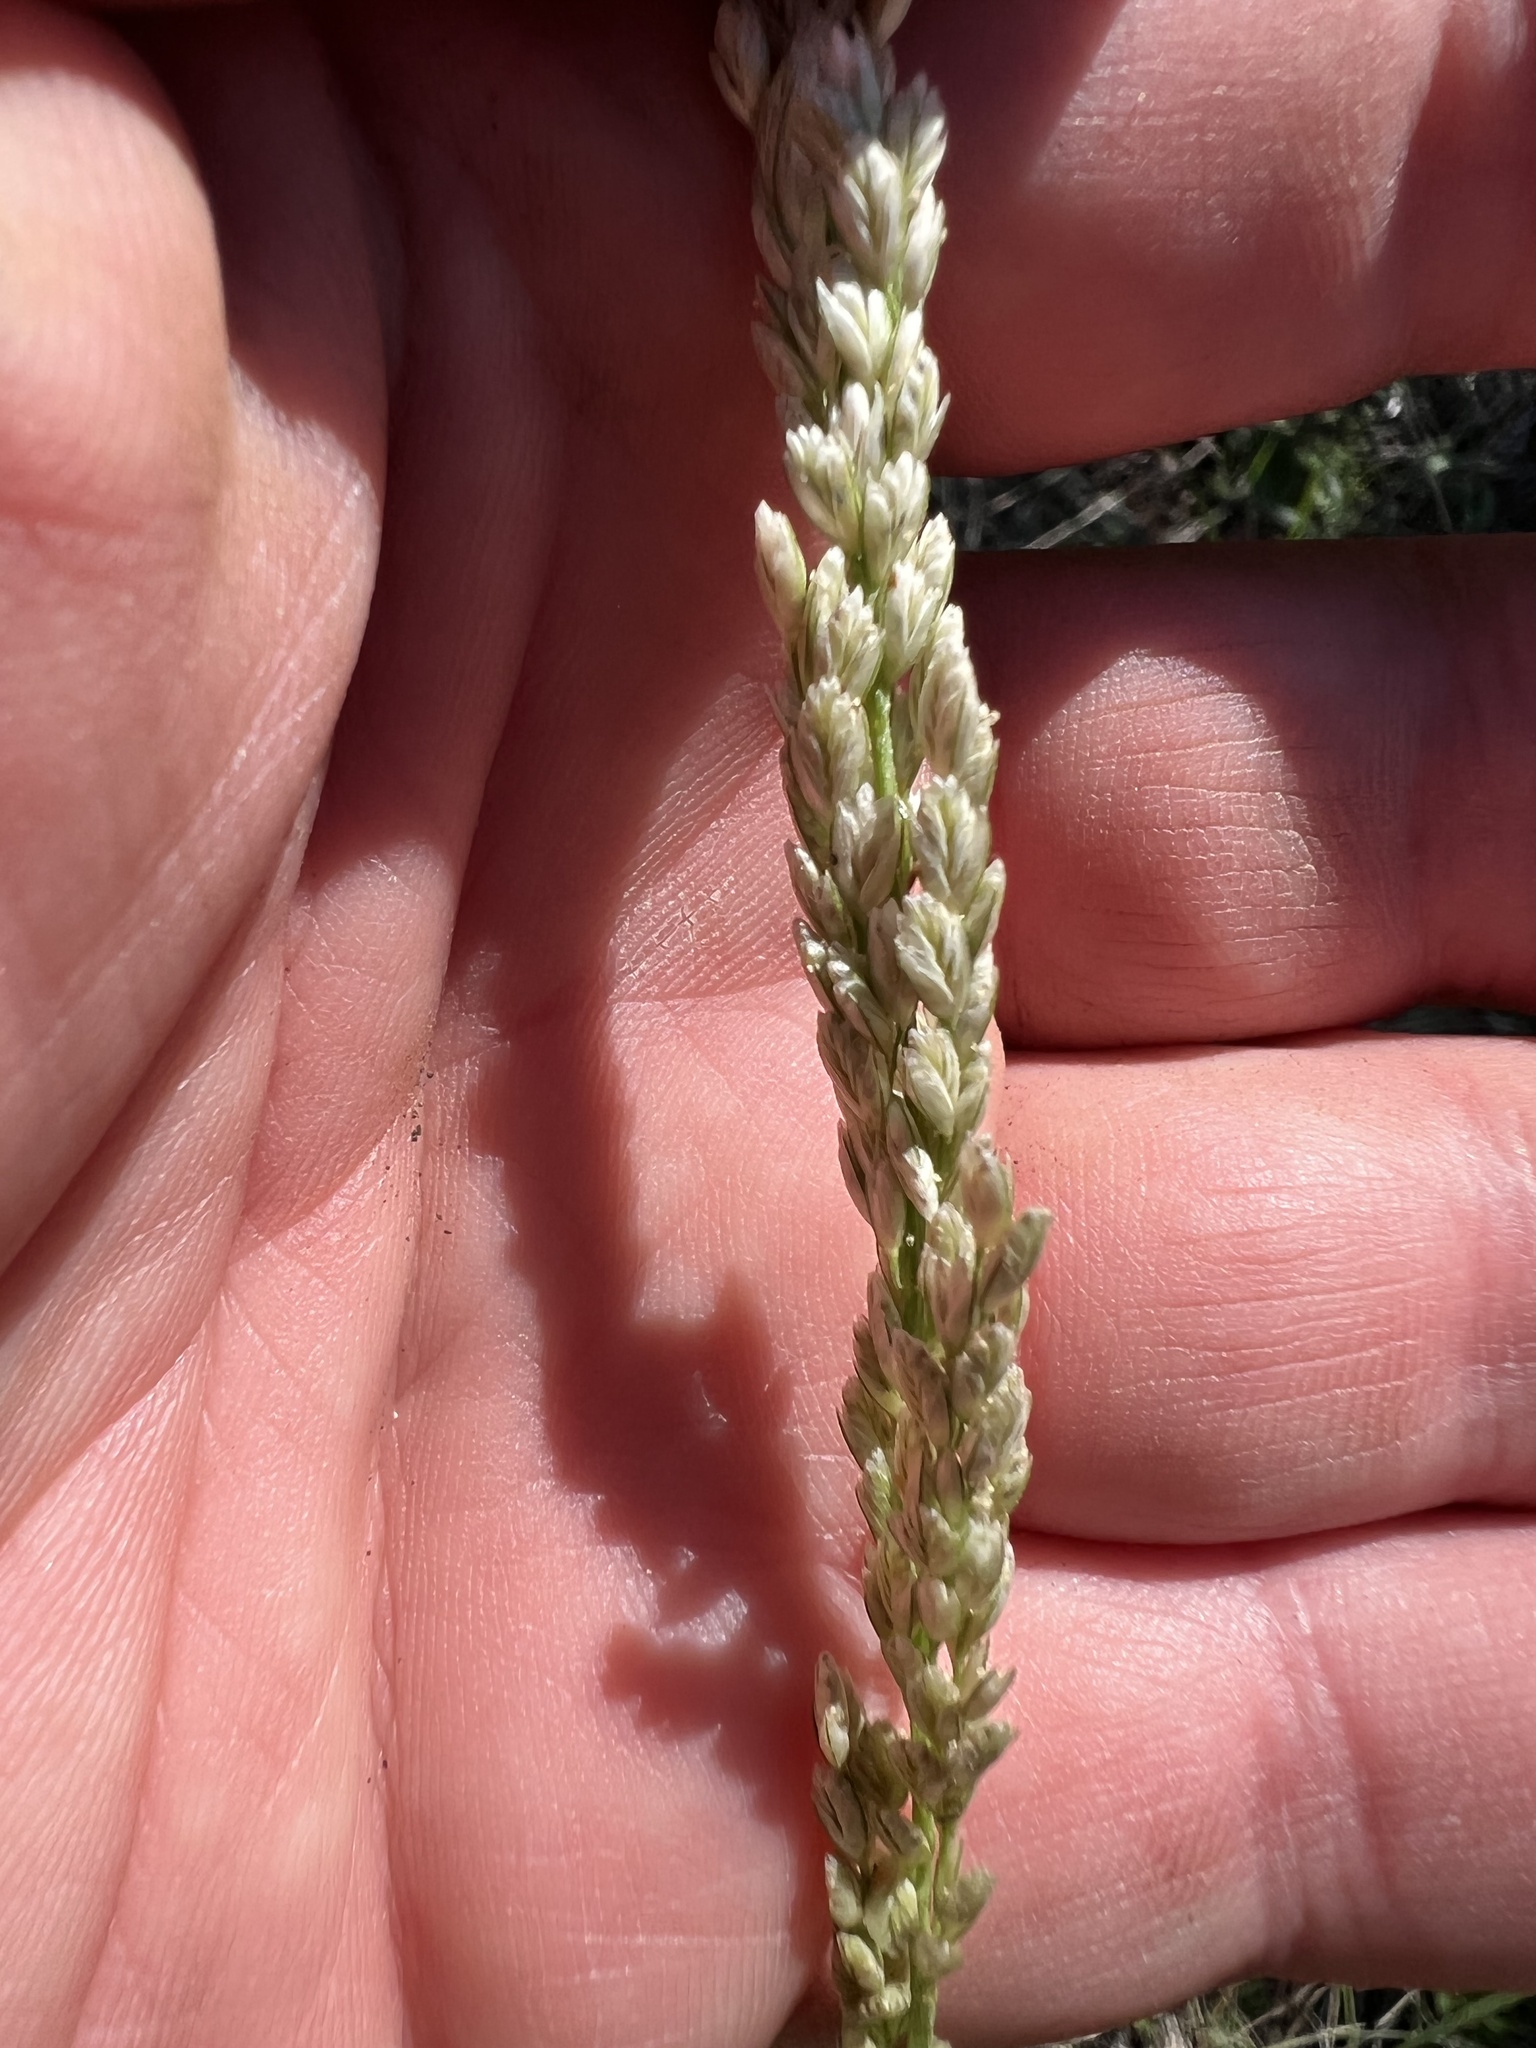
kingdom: Plantae
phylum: Tracheophyta
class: Liliopsida
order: Poales
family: Poaceae
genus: Tridens
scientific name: Tridens albescens
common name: White tridens
